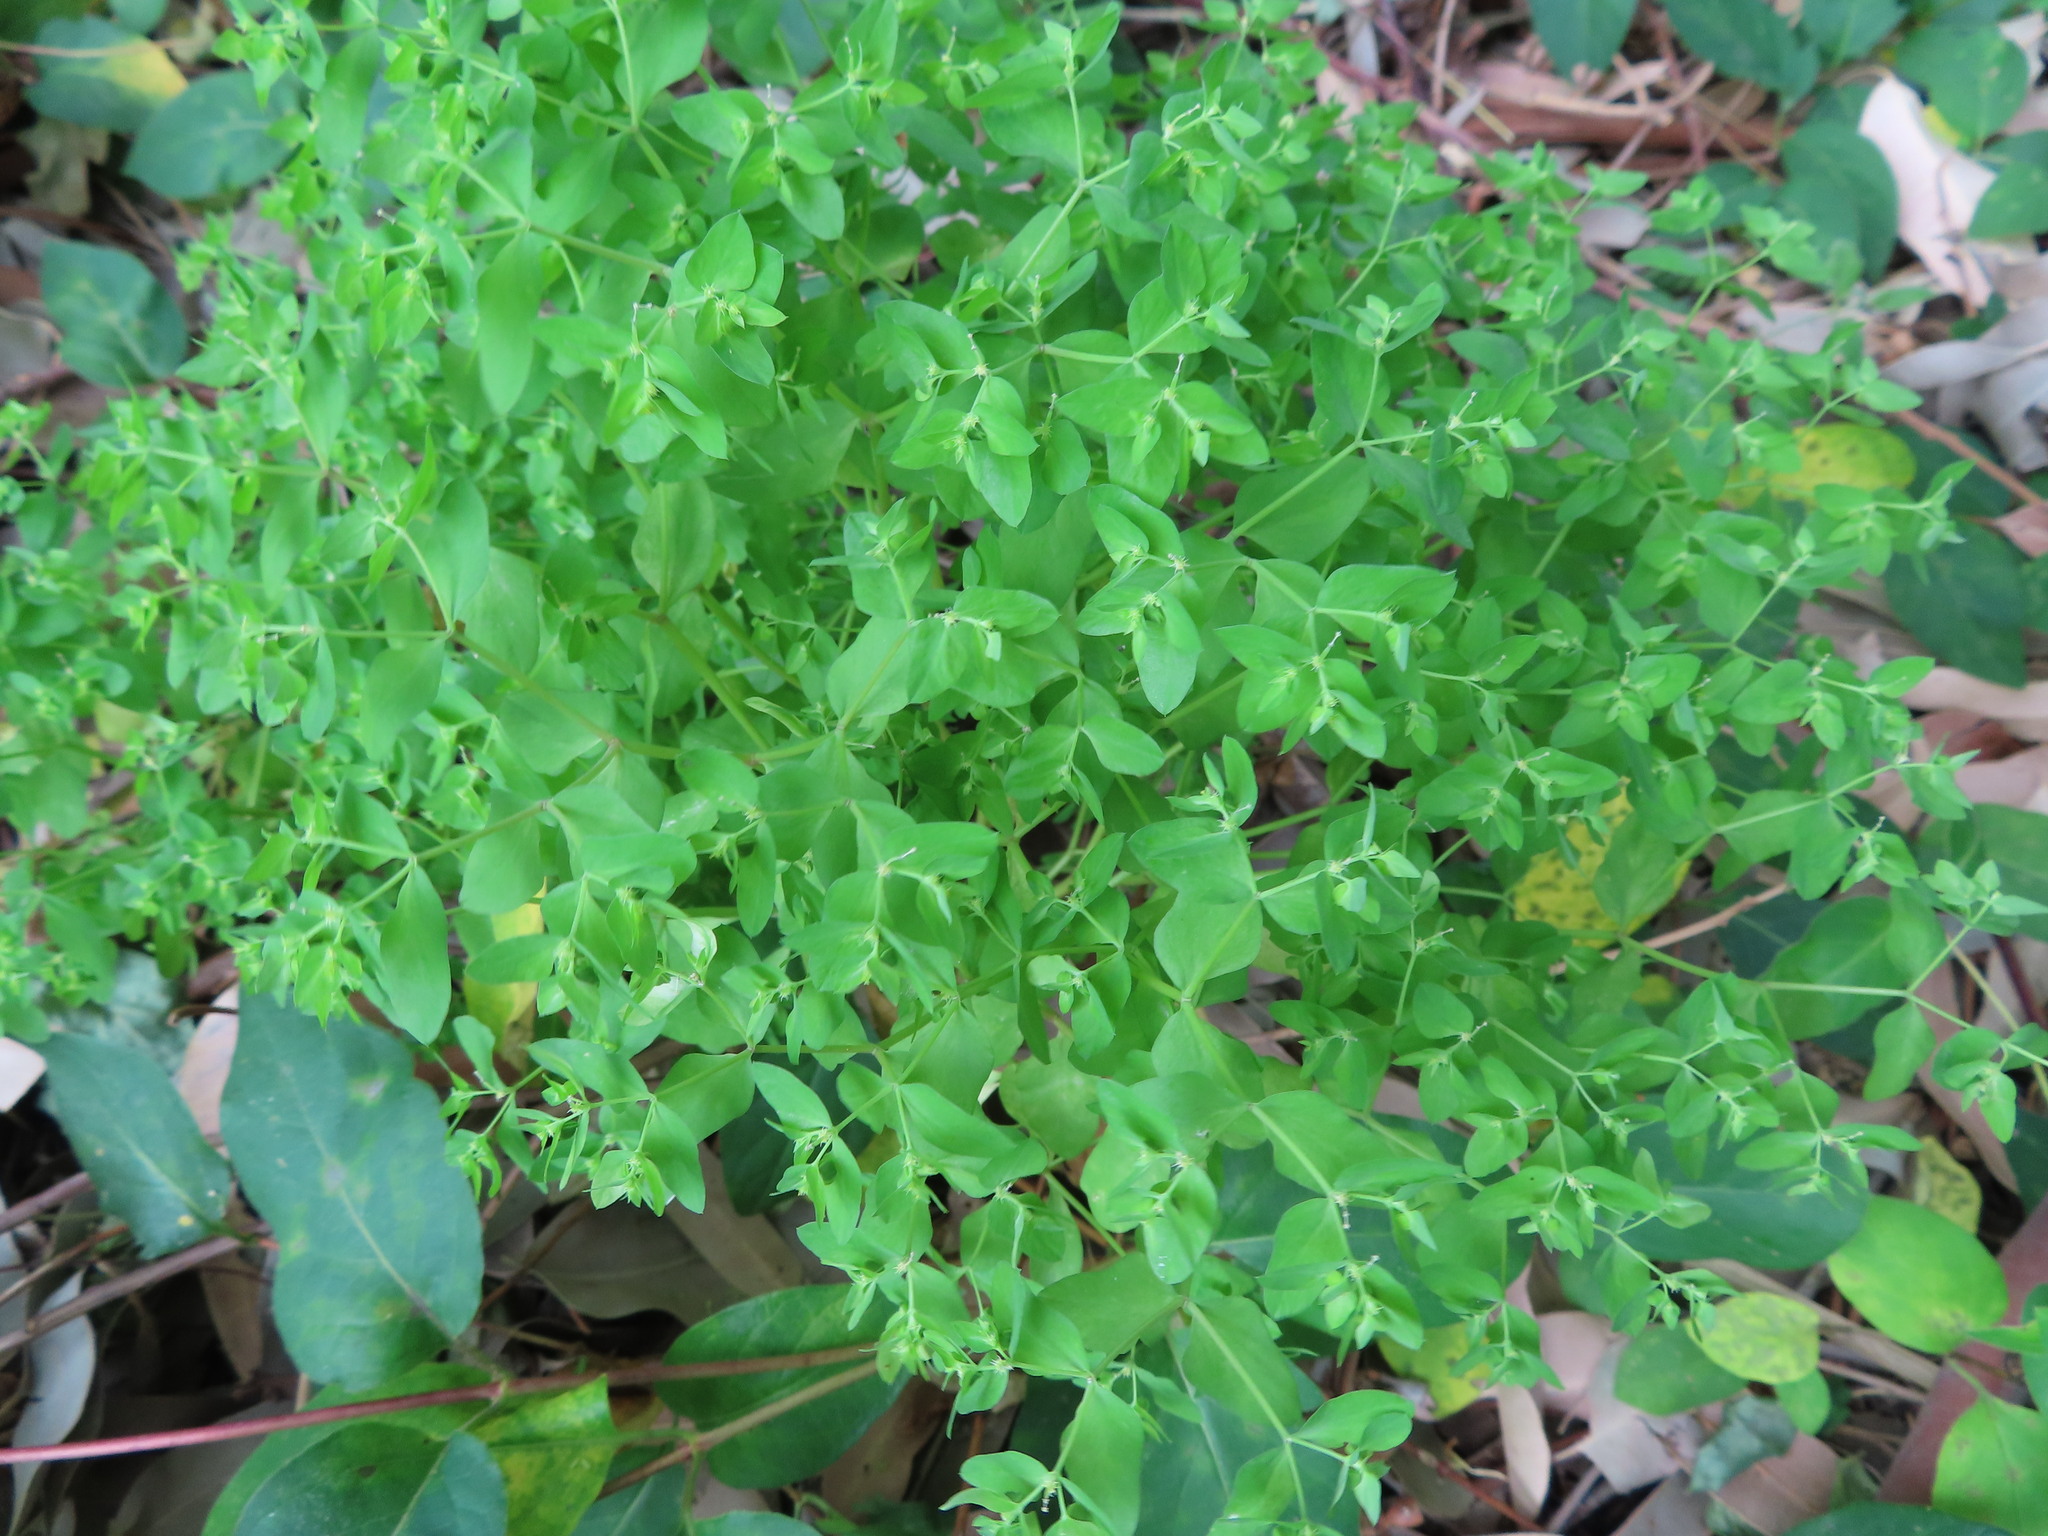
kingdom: Plantae
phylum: Tracheophyta
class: Magnoliopsida
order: Malpighiales
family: Euphorbiaceae
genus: Euphorbia
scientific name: Euphorbia peplus
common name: Petty spurge
